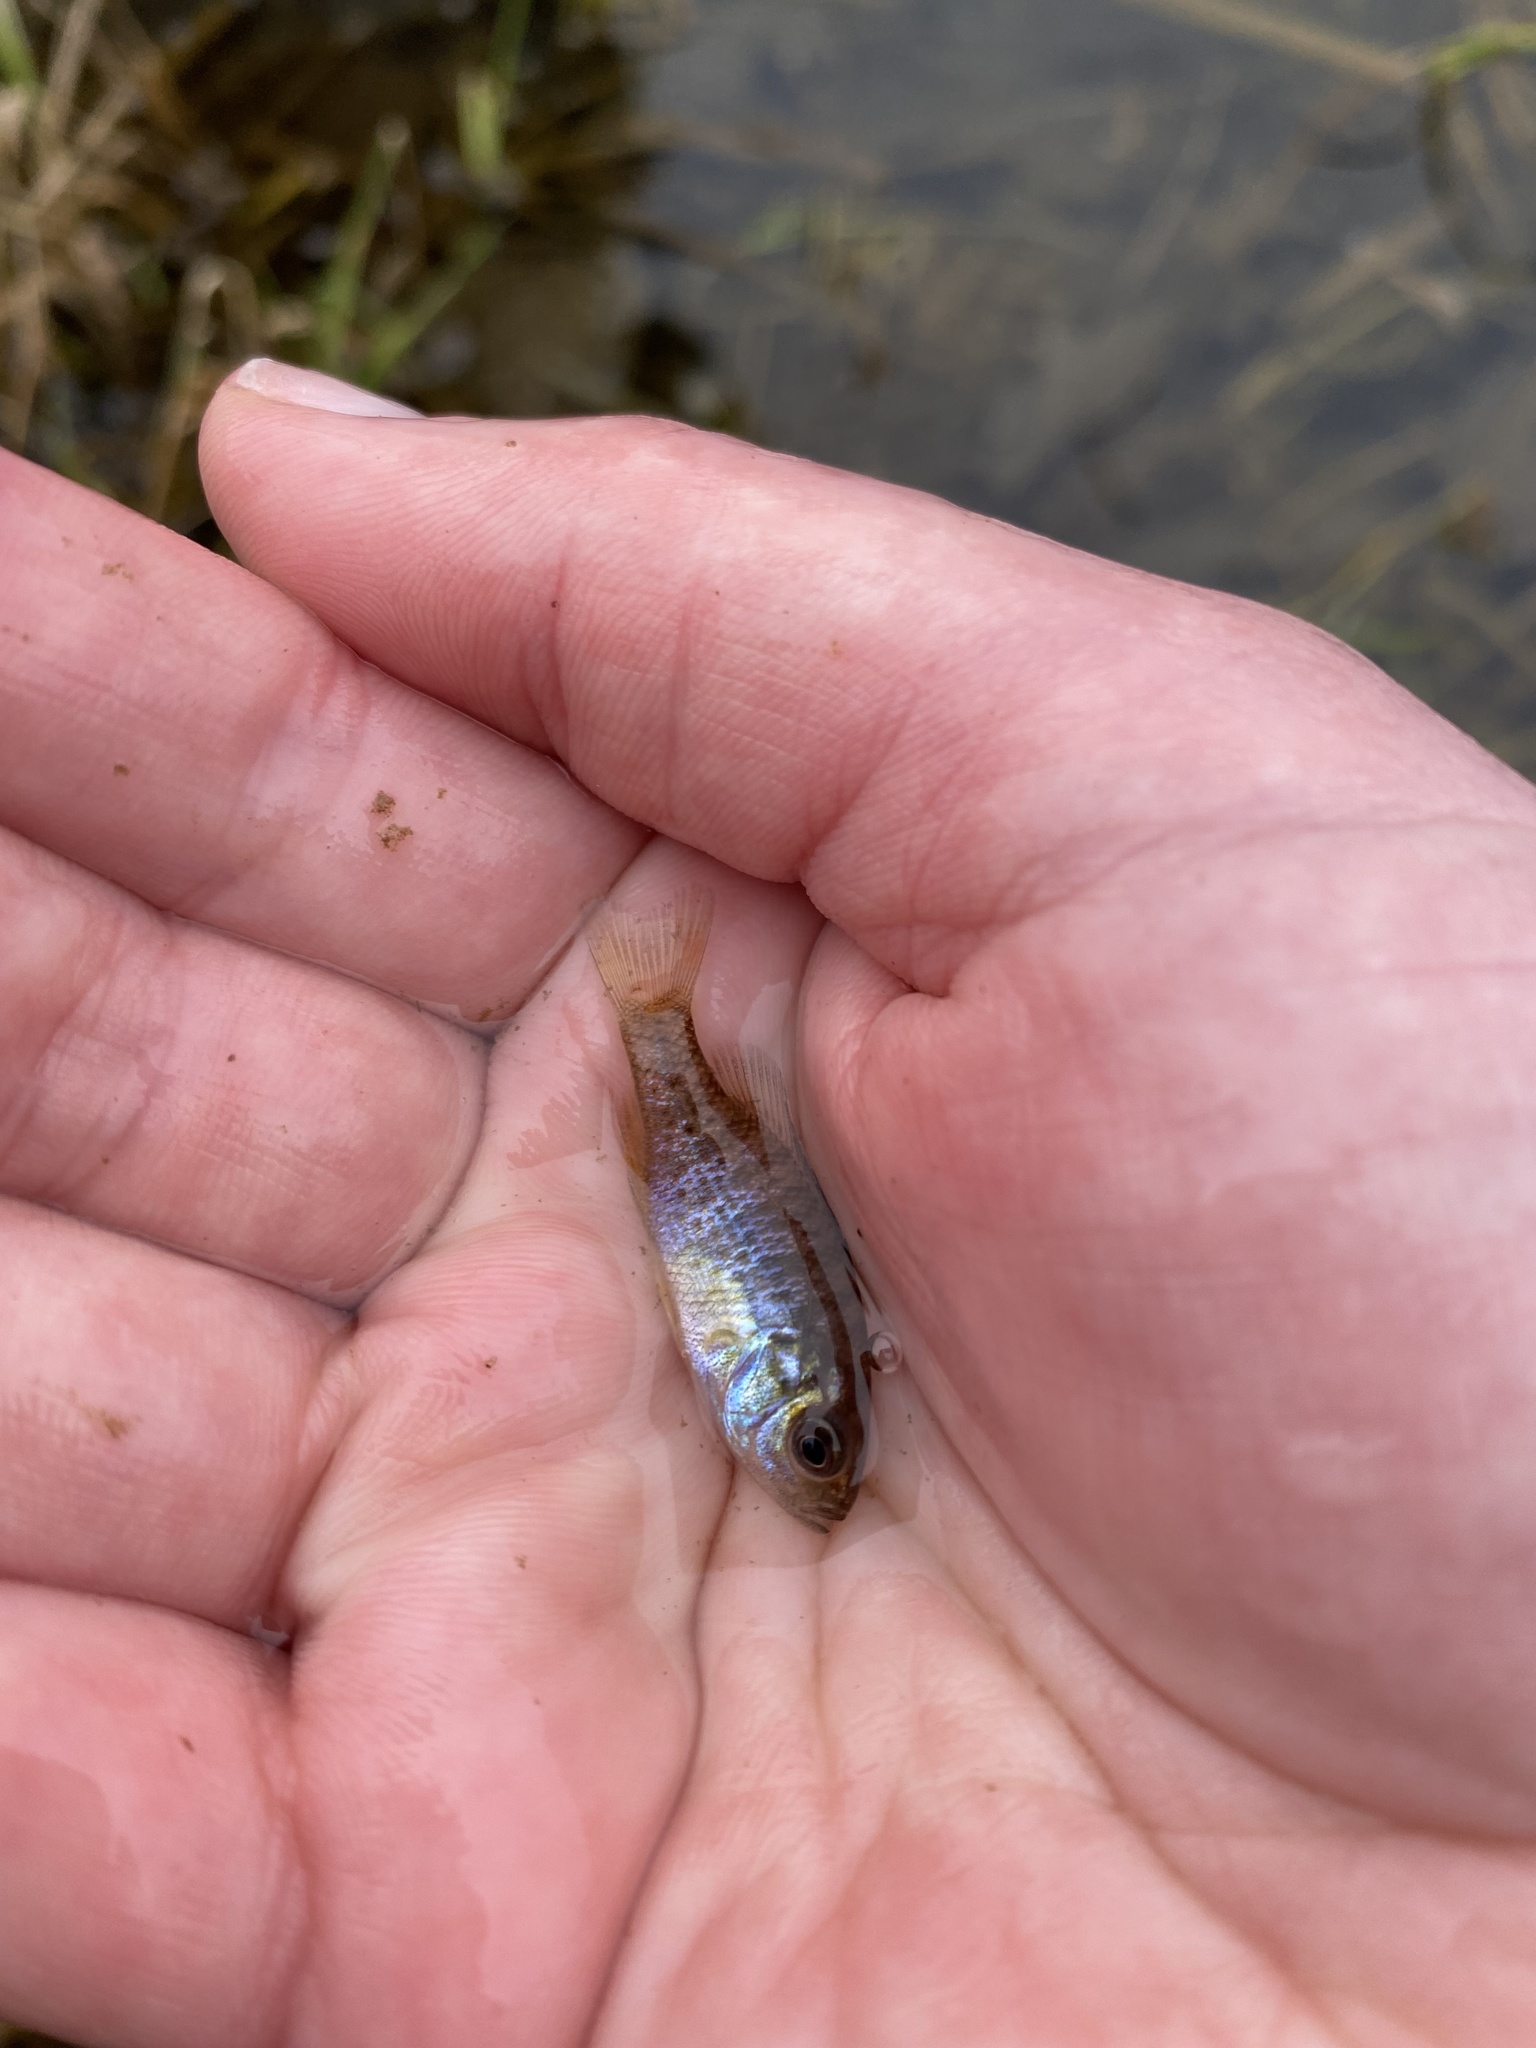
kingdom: Animalia
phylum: Chordata
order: Perciformes
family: Centrarchidae
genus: Lepomis
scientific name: Lepomis gibbosus
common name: Pumpkinseed
